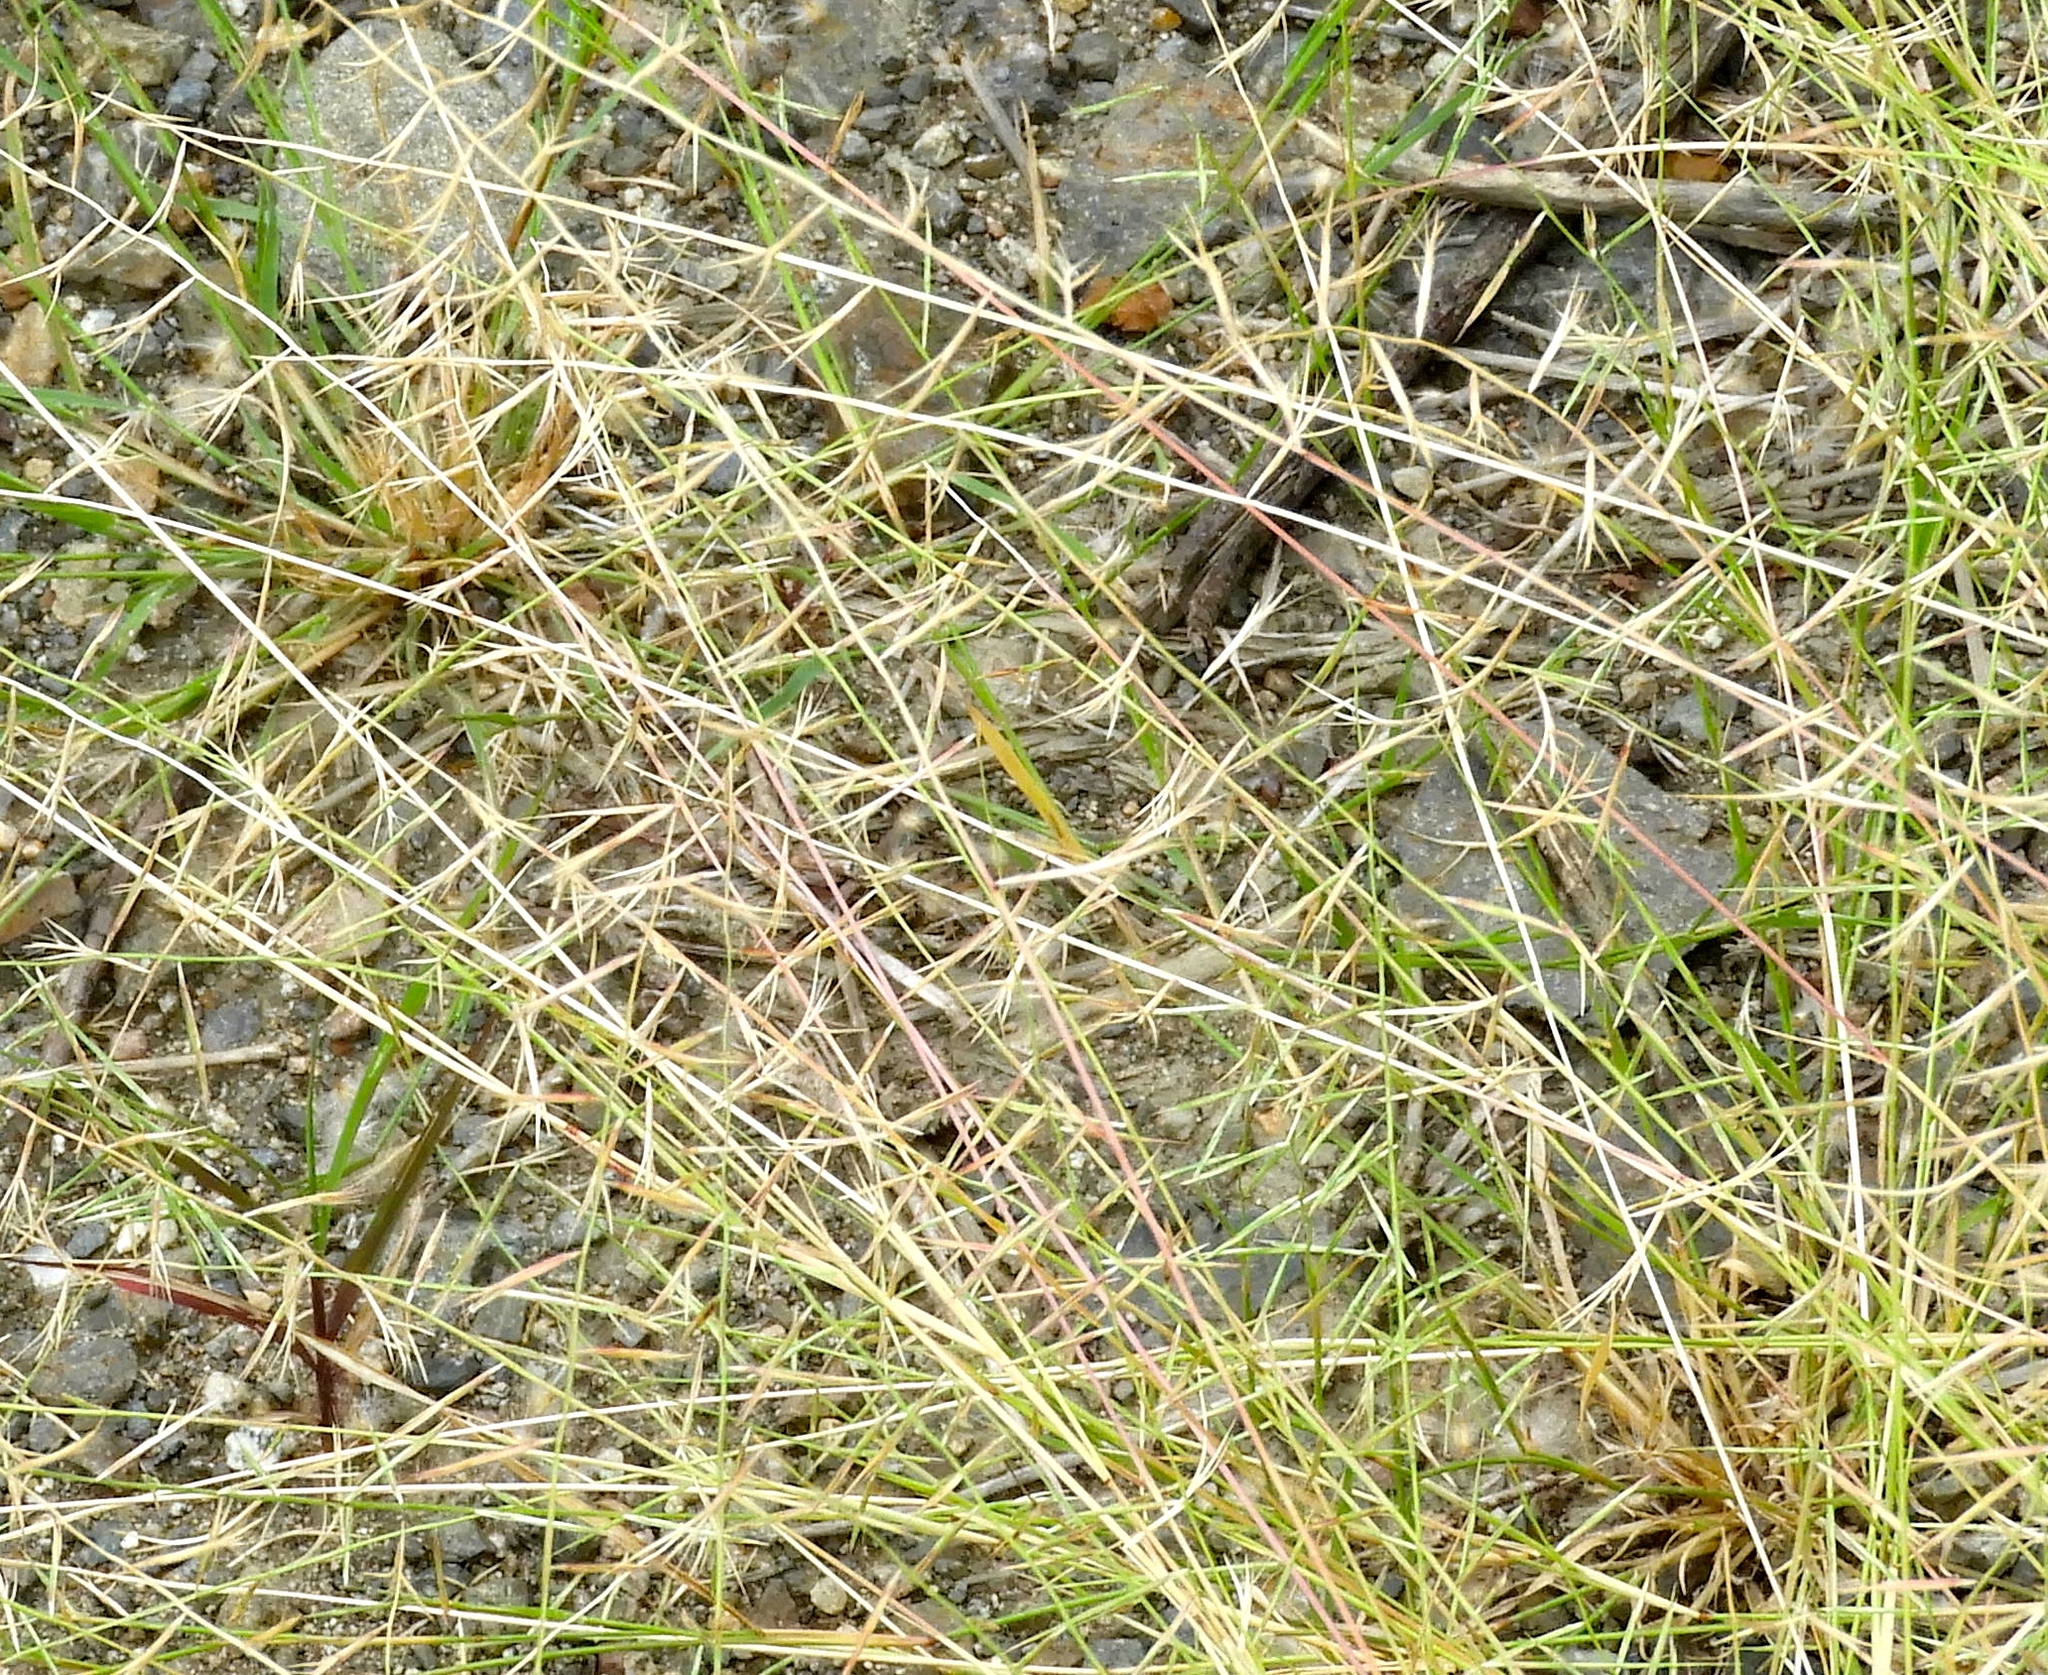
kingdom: Plantae
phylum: Tracheophyta
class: Liliopsida
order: Poales
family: Poaceae
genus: Bouteloua
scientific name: Bouteloua
